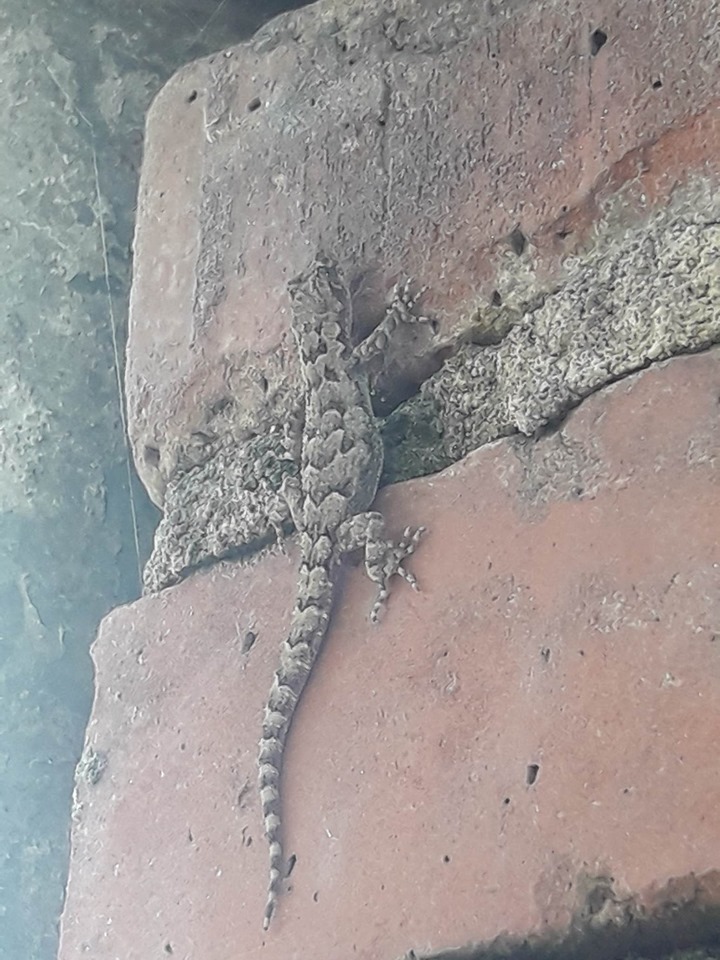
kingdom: Animalia
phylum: Chordata
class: Squamata
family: Gekkonidae
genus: Mediodactylus
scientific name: Mediodactylus kotschyi
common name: Kotschy's gecko
